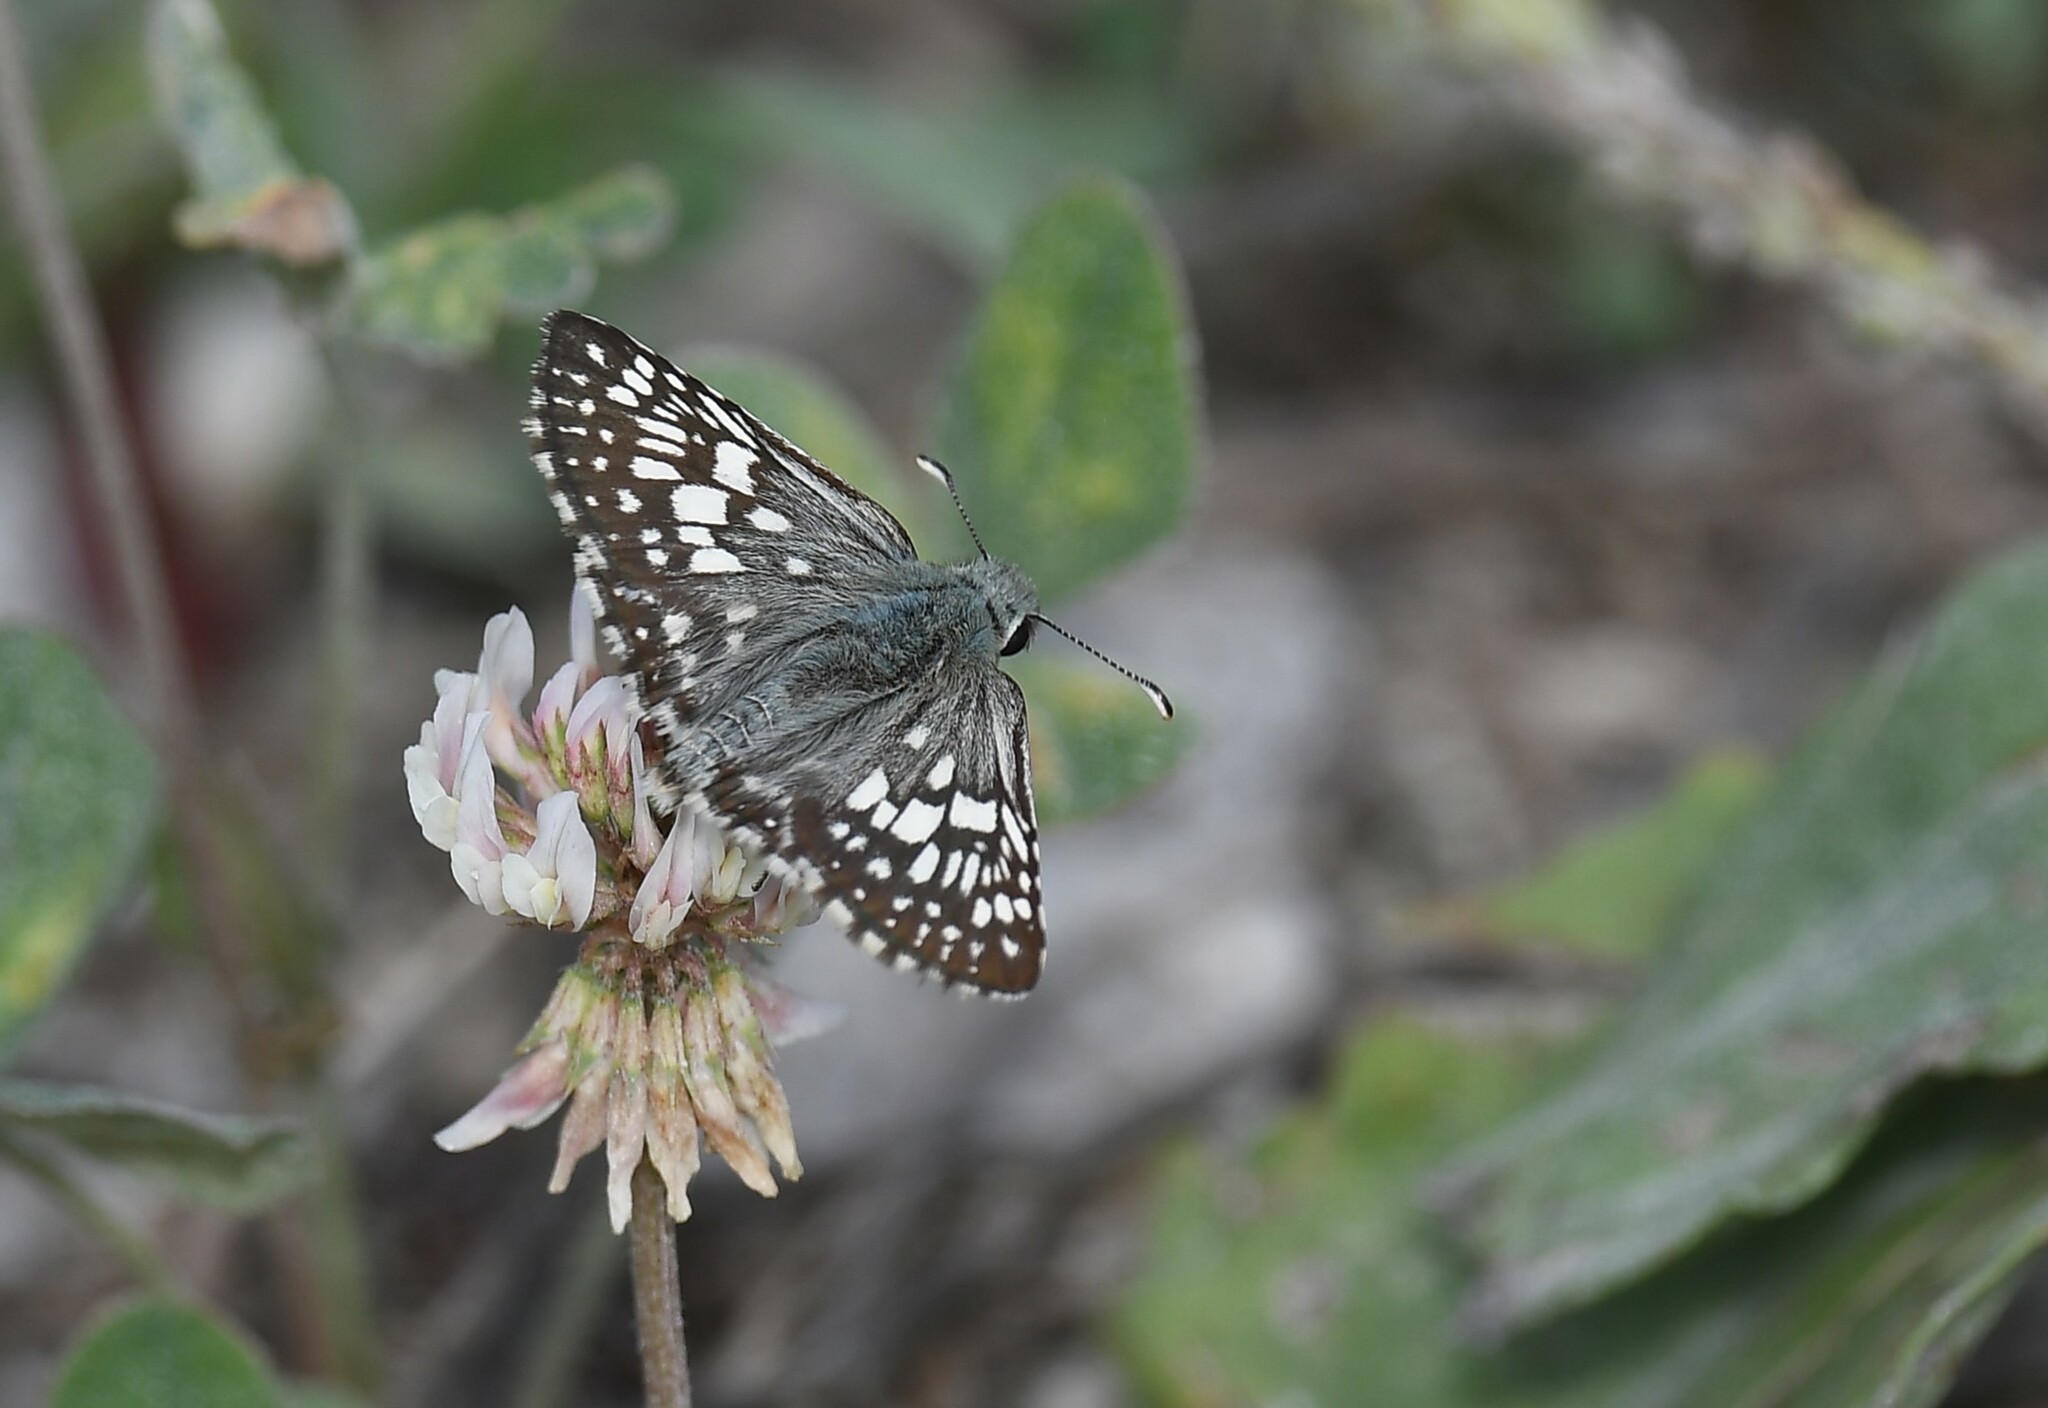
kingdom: Animalia
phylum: Arthropoda
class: Insecta
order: Lepidoptera
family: Hesperiidae
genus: Burnsius
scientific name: Burnsius communis
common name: Common checkered-skipper
